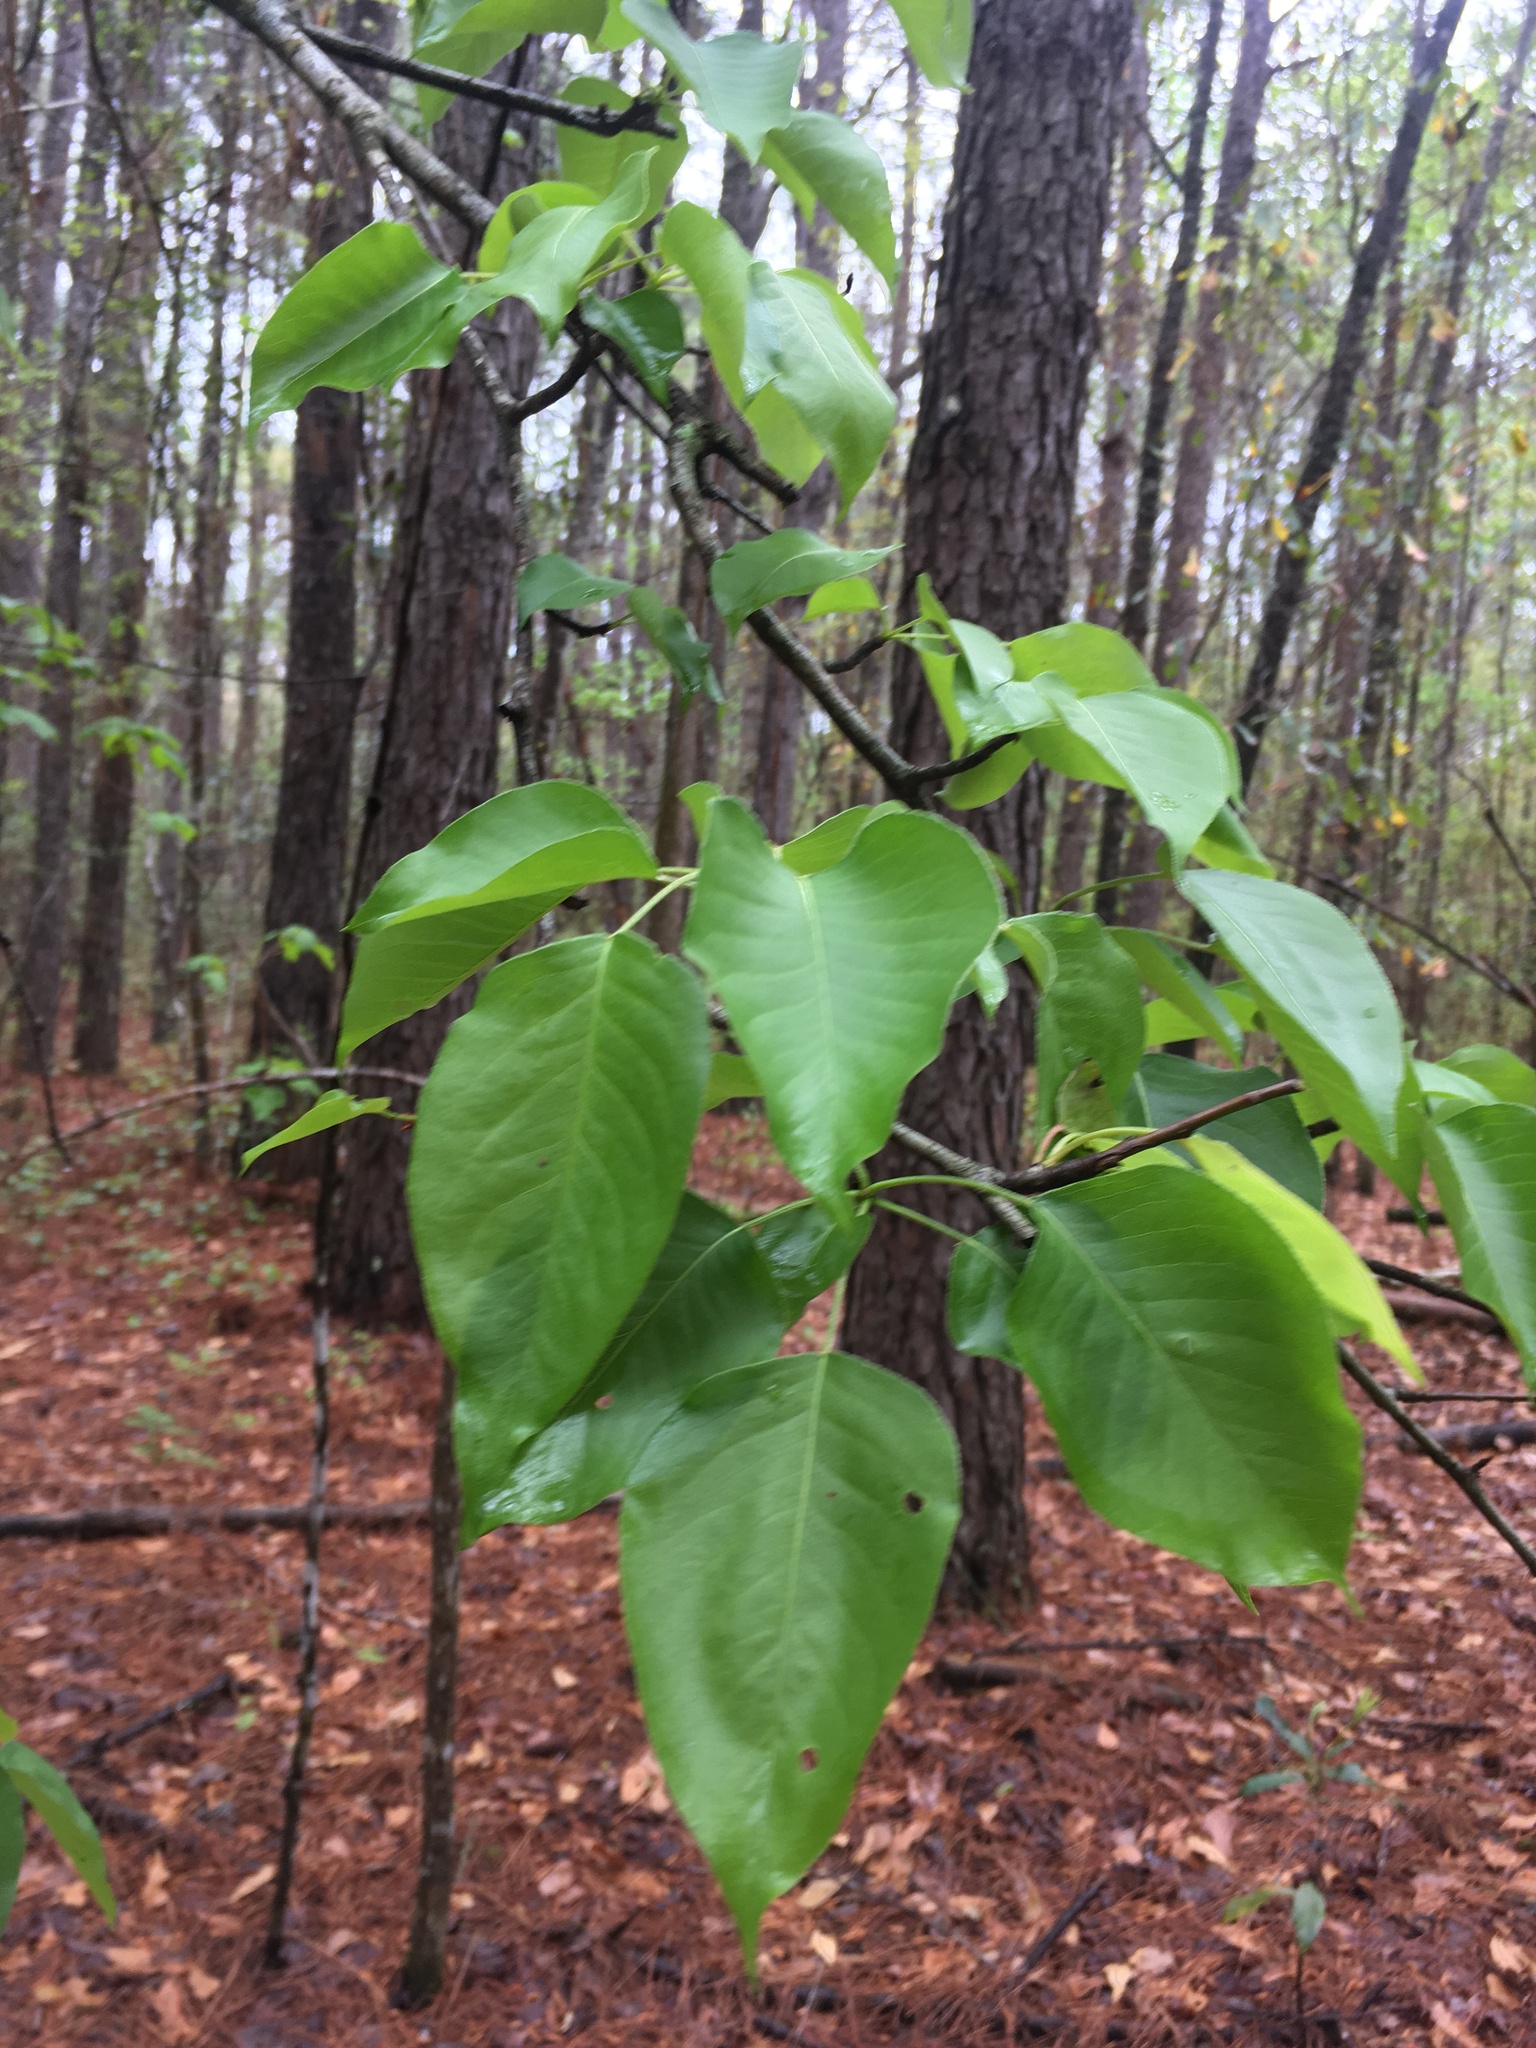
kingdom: Plantae
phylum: Tracheophyta
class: Magnoliopsida
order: Rosales
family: Rosaceae
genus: Pyrus
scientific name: Pyrus calleryana
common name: Callery pear
